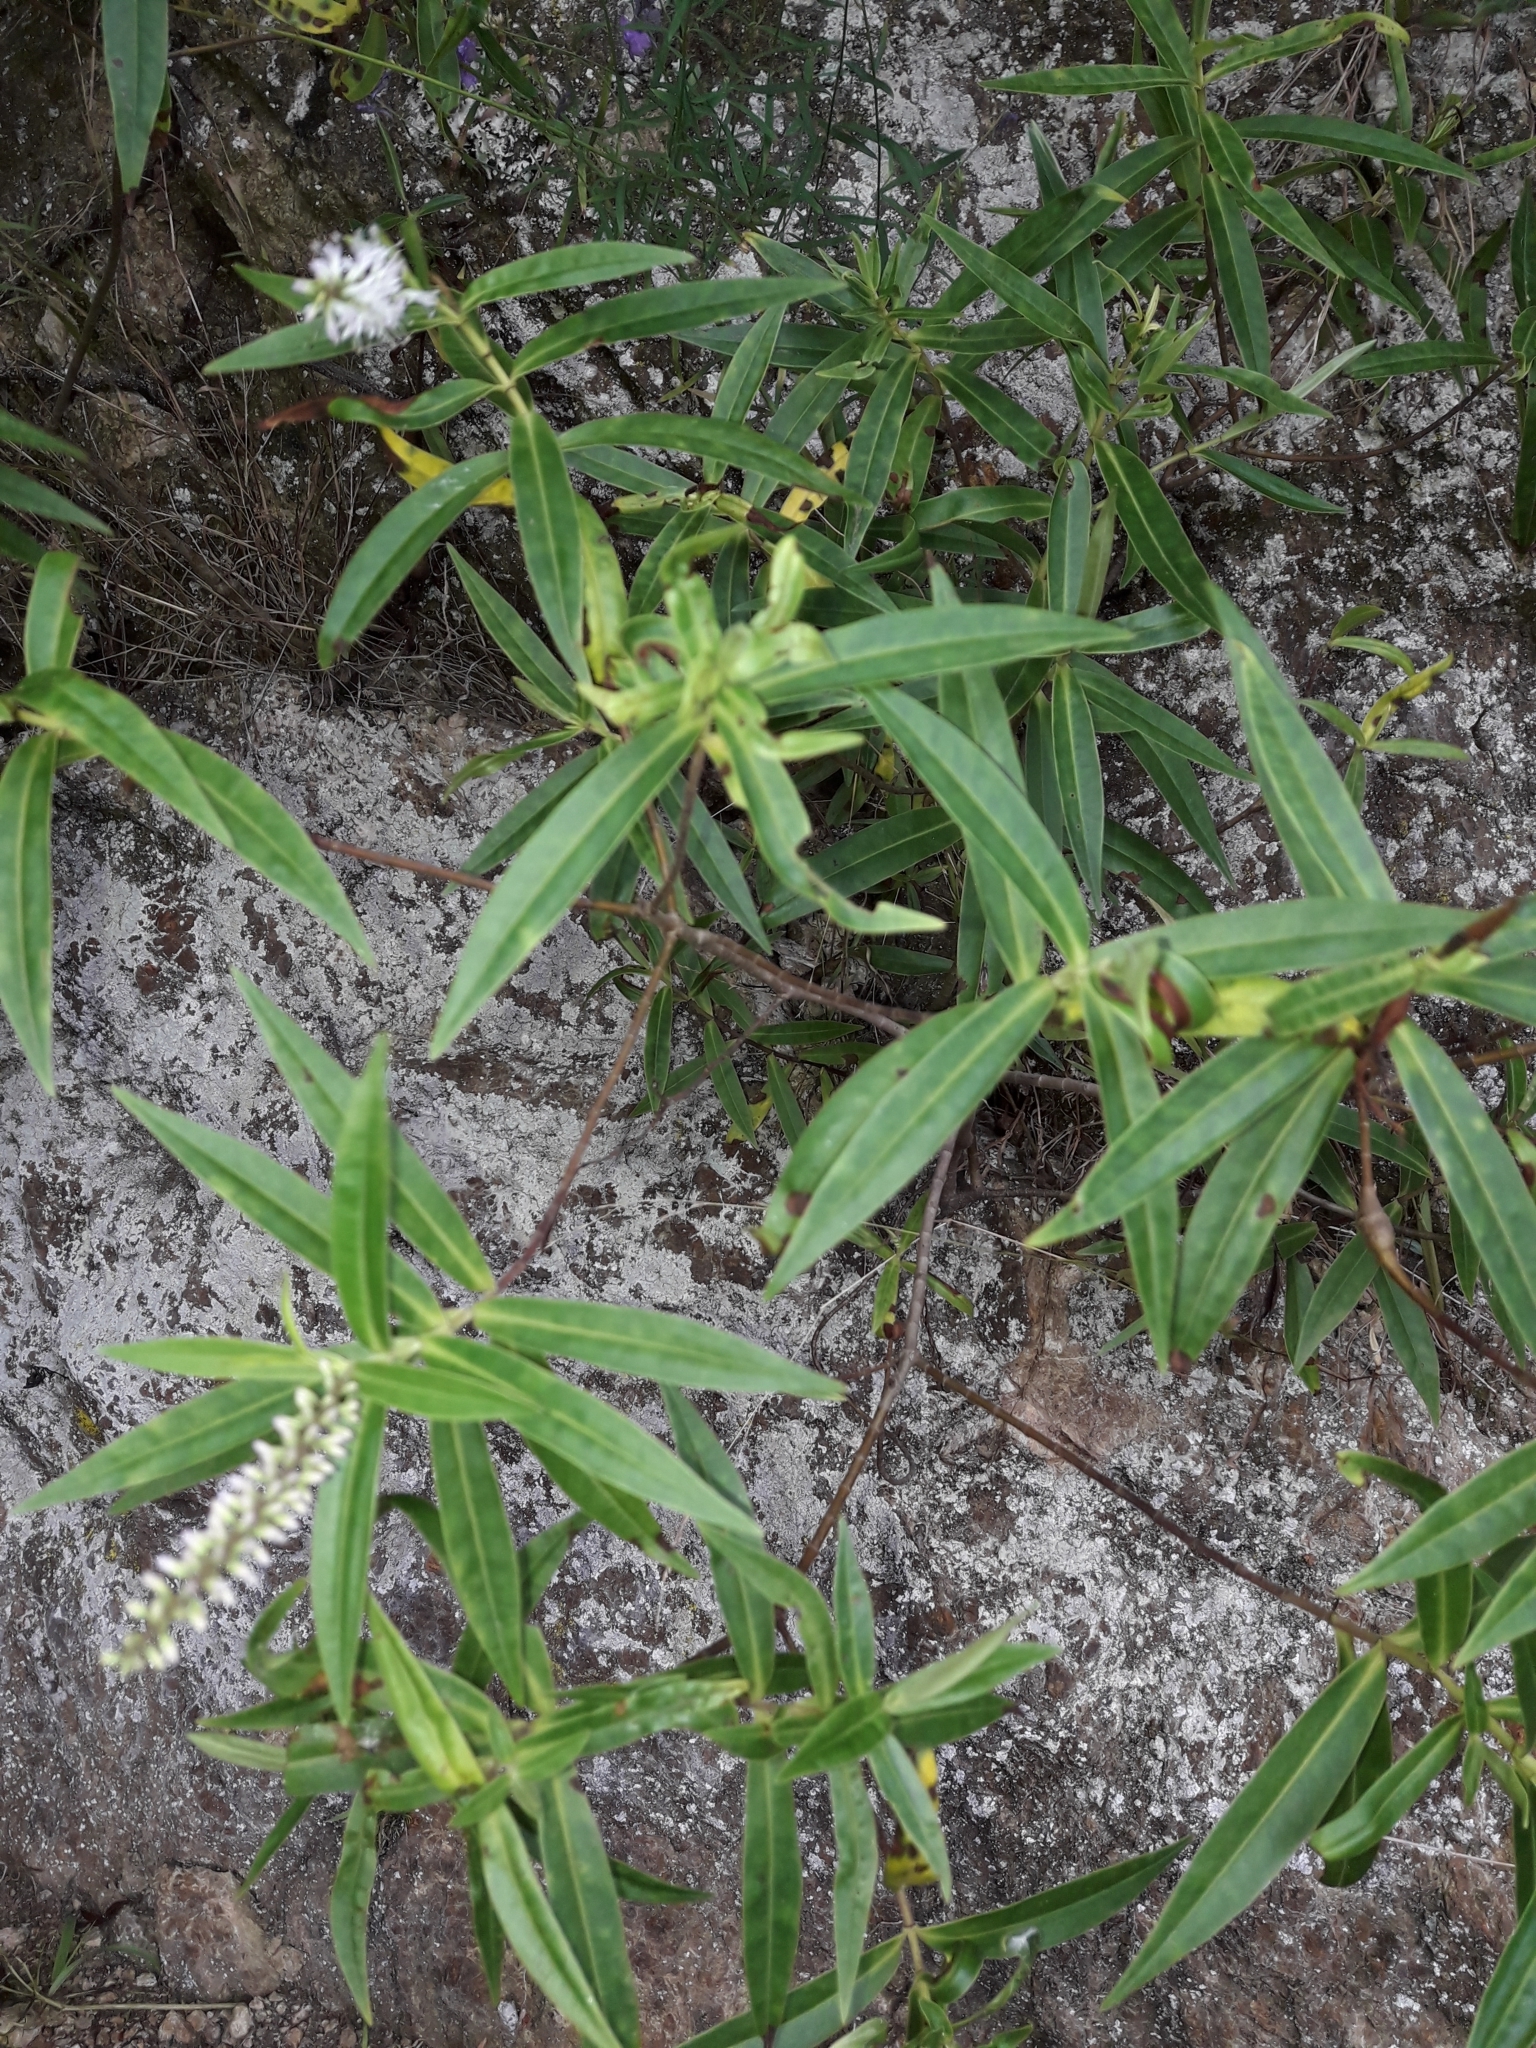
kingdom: Plantae
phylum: Tracheophyta
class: Magnoliopsida
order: Lamiales
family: Plantaginaceae
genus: Veronica
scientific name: Veronica stricta
